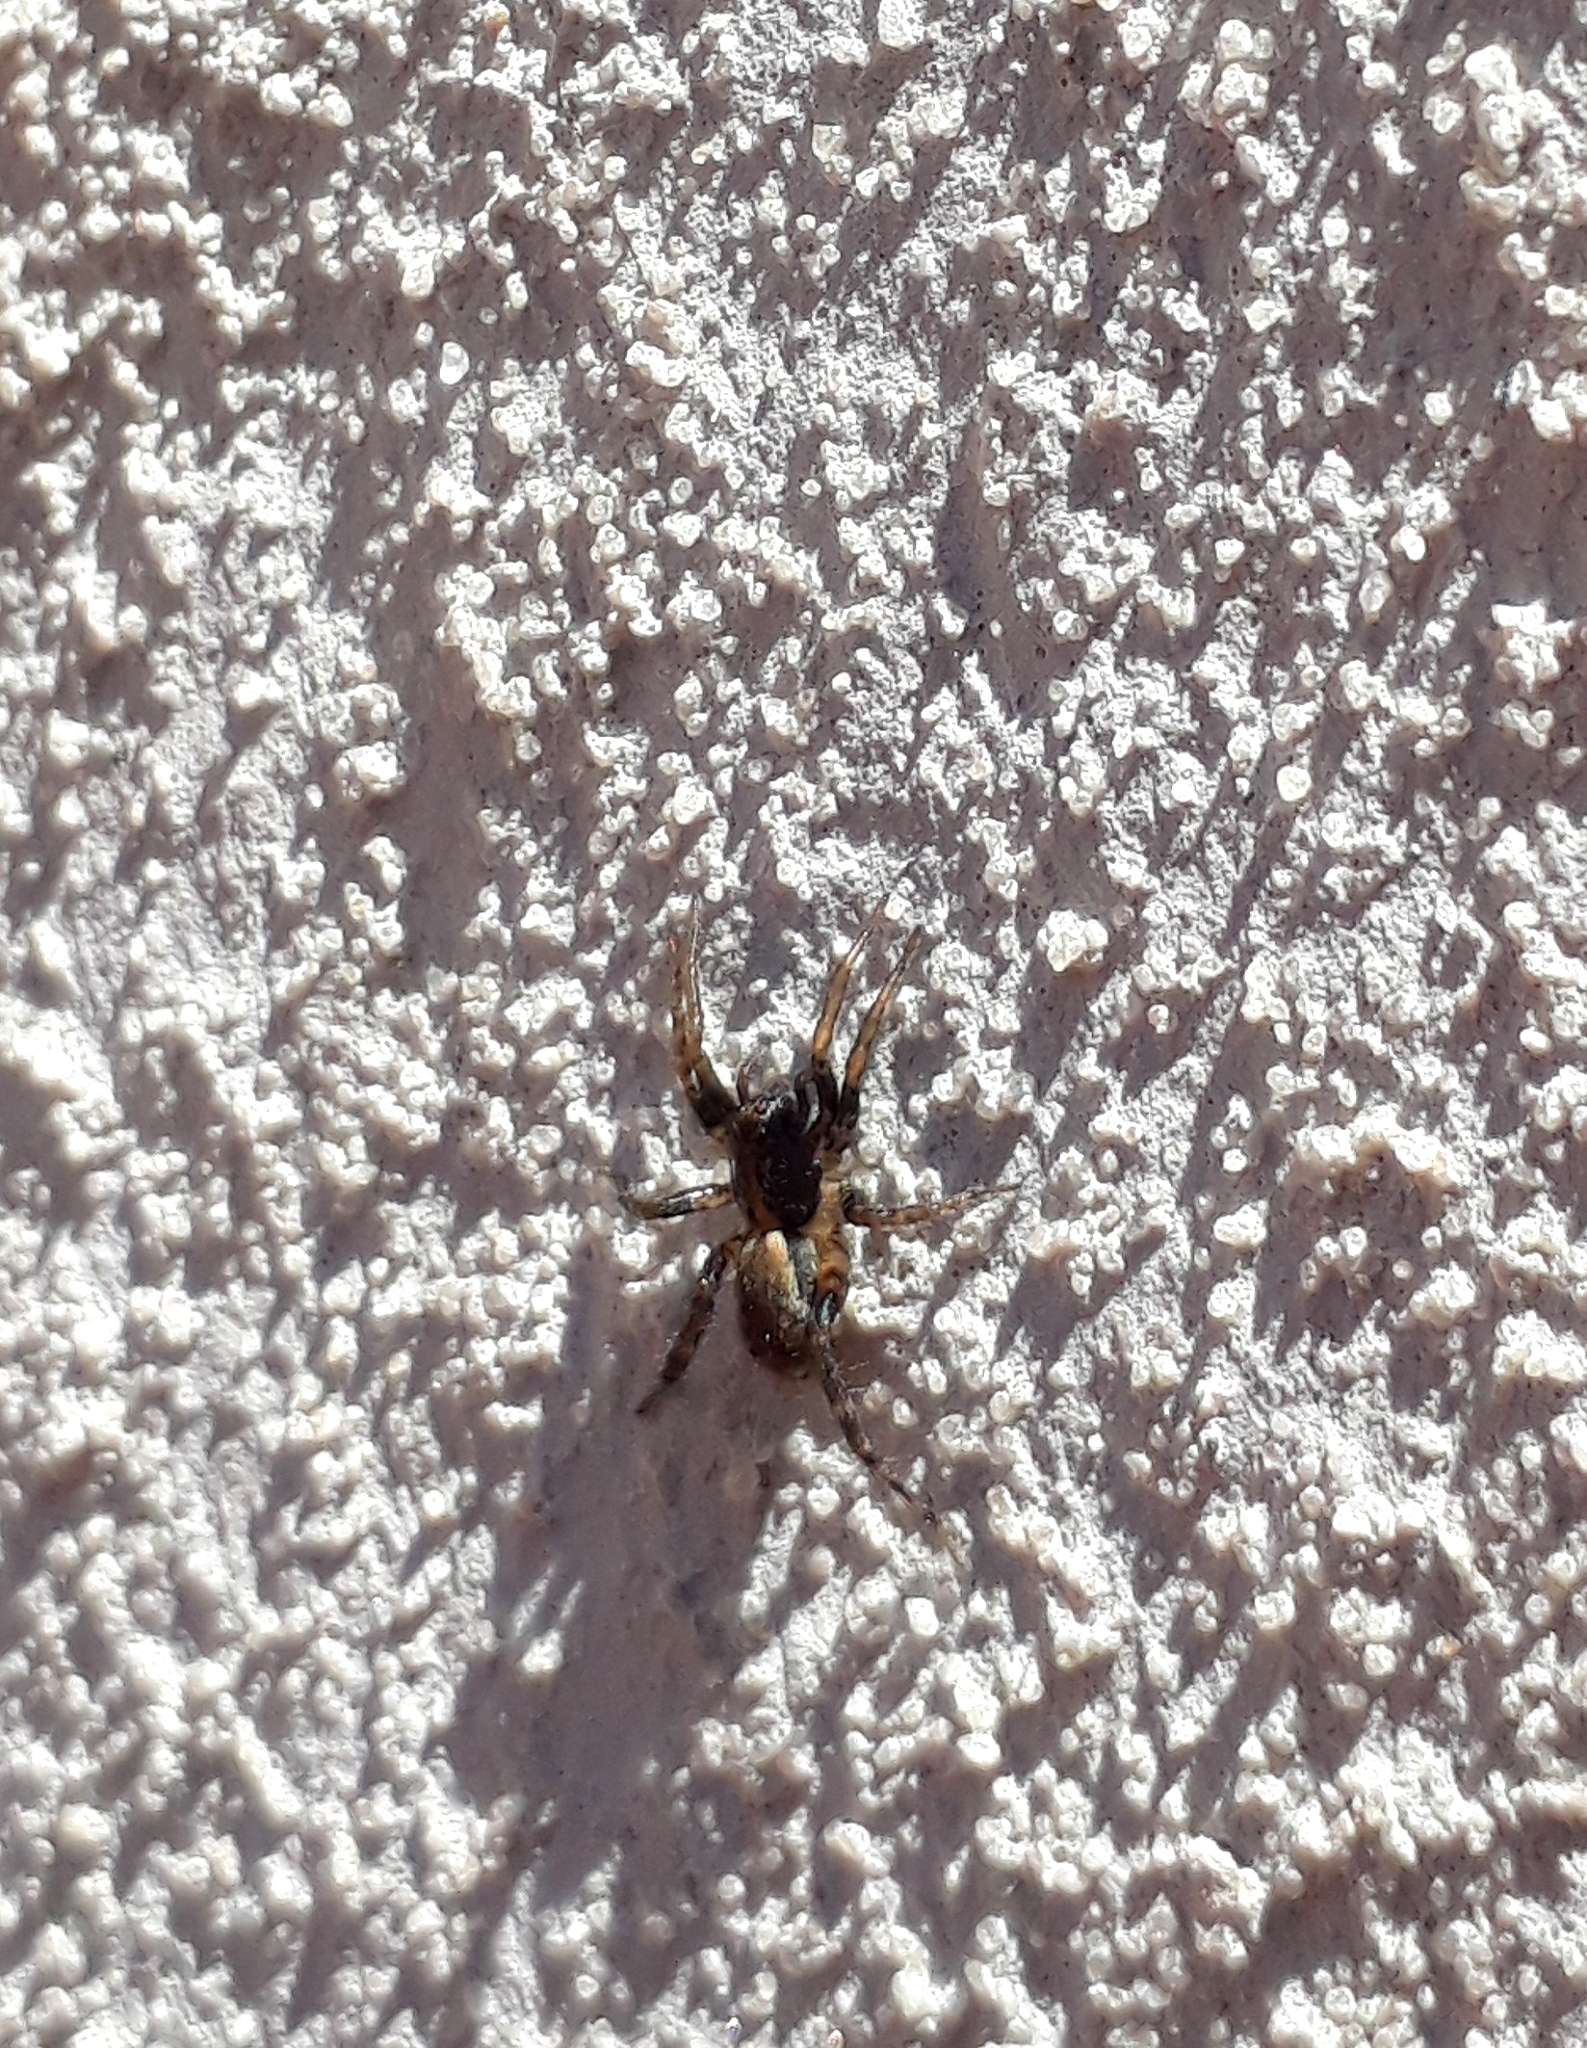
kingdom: Animalia
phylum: Arthropoda
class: Arachnida
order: Araneae
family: Lycosidae
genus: Abaycosa
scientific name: Abaycosa nanica
